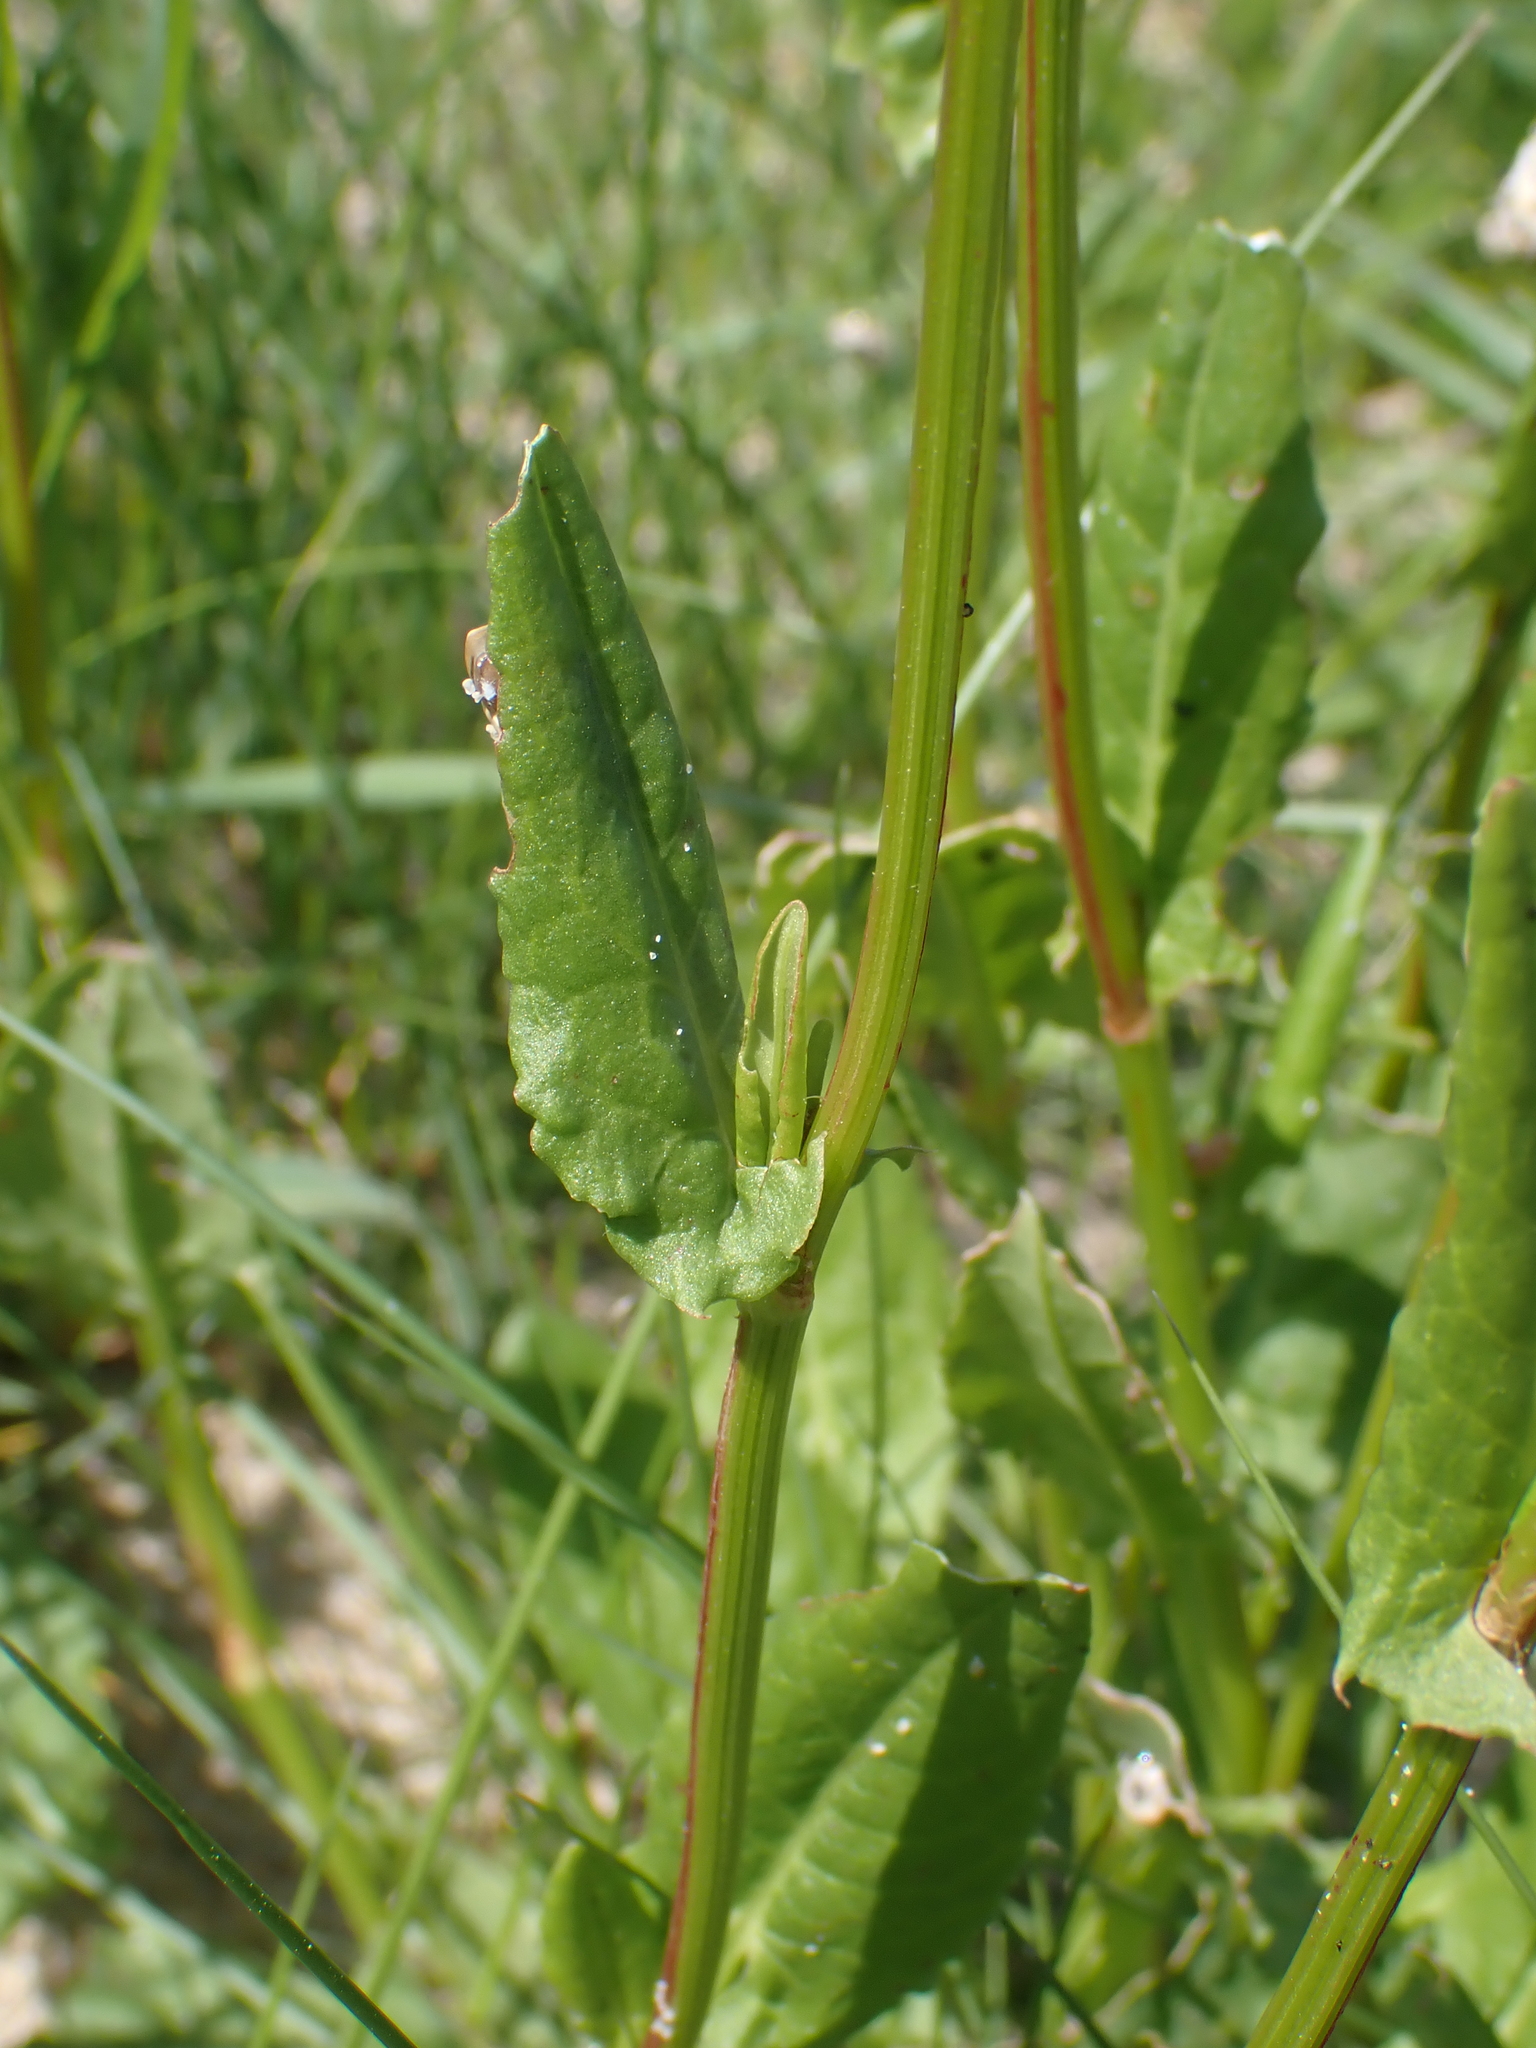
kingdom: Plantae
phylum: Tracheophyta
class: Magnoliopsida
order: Caryophyllales
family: Polygonaceae
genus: Rumex
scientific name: Rumex acetosa
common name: Garden sorrel
